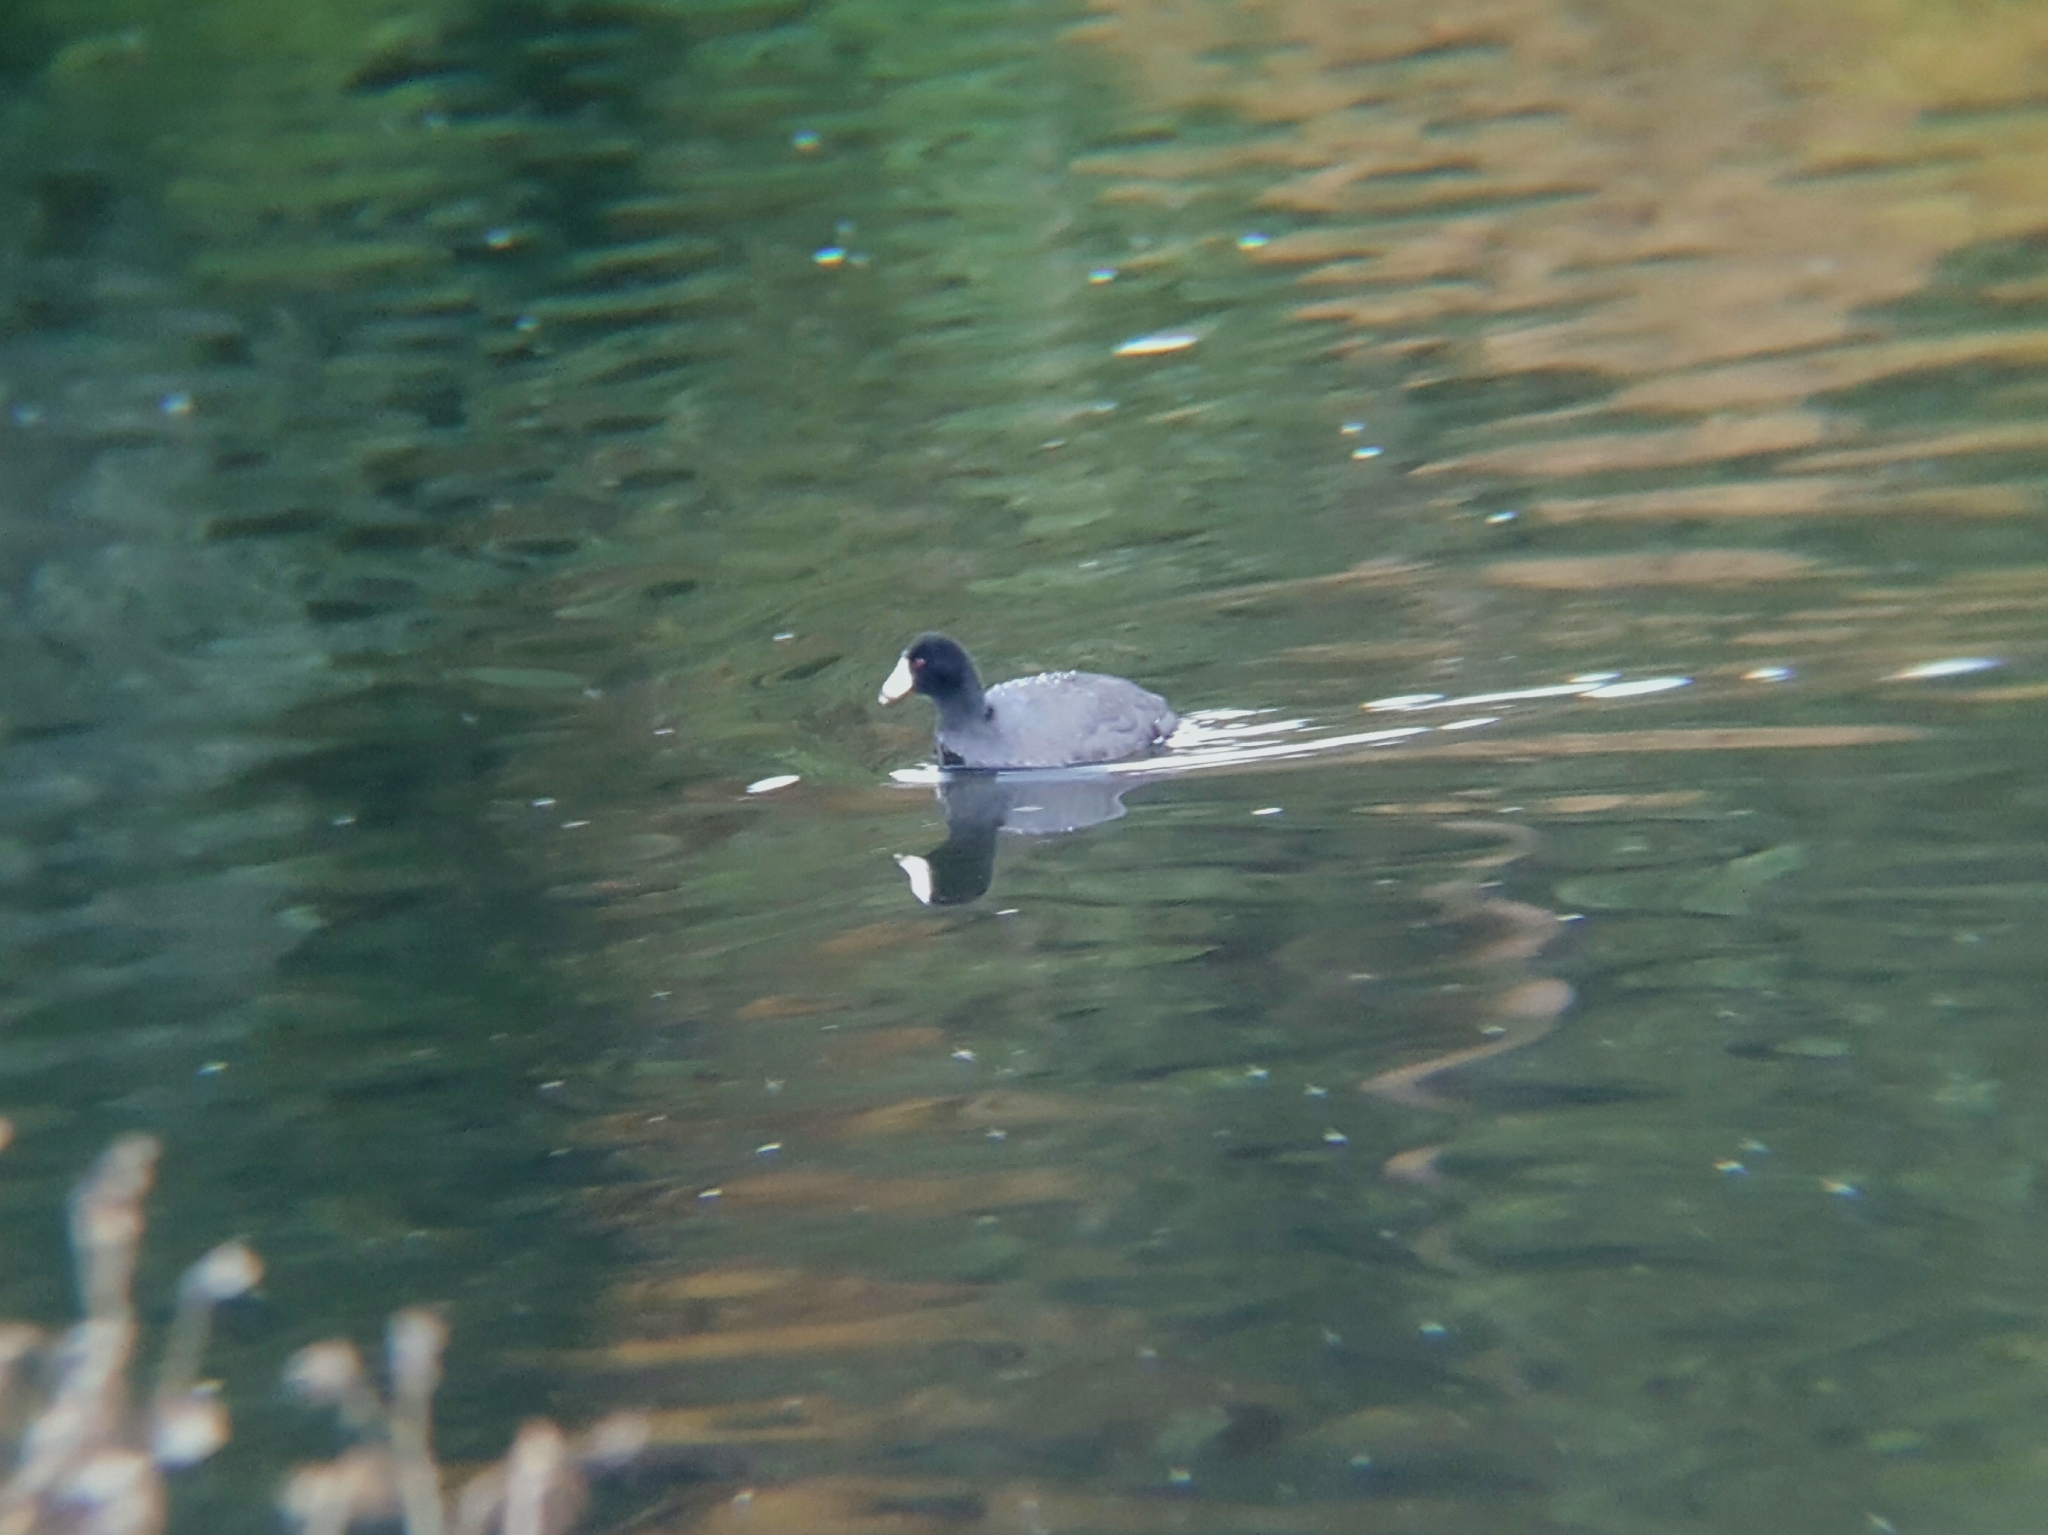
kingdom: Animalia
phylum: Chordata
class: Aves
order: Gruiformes
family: Rallidae
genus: Fulica
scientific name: Fulica americana
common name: American coot
